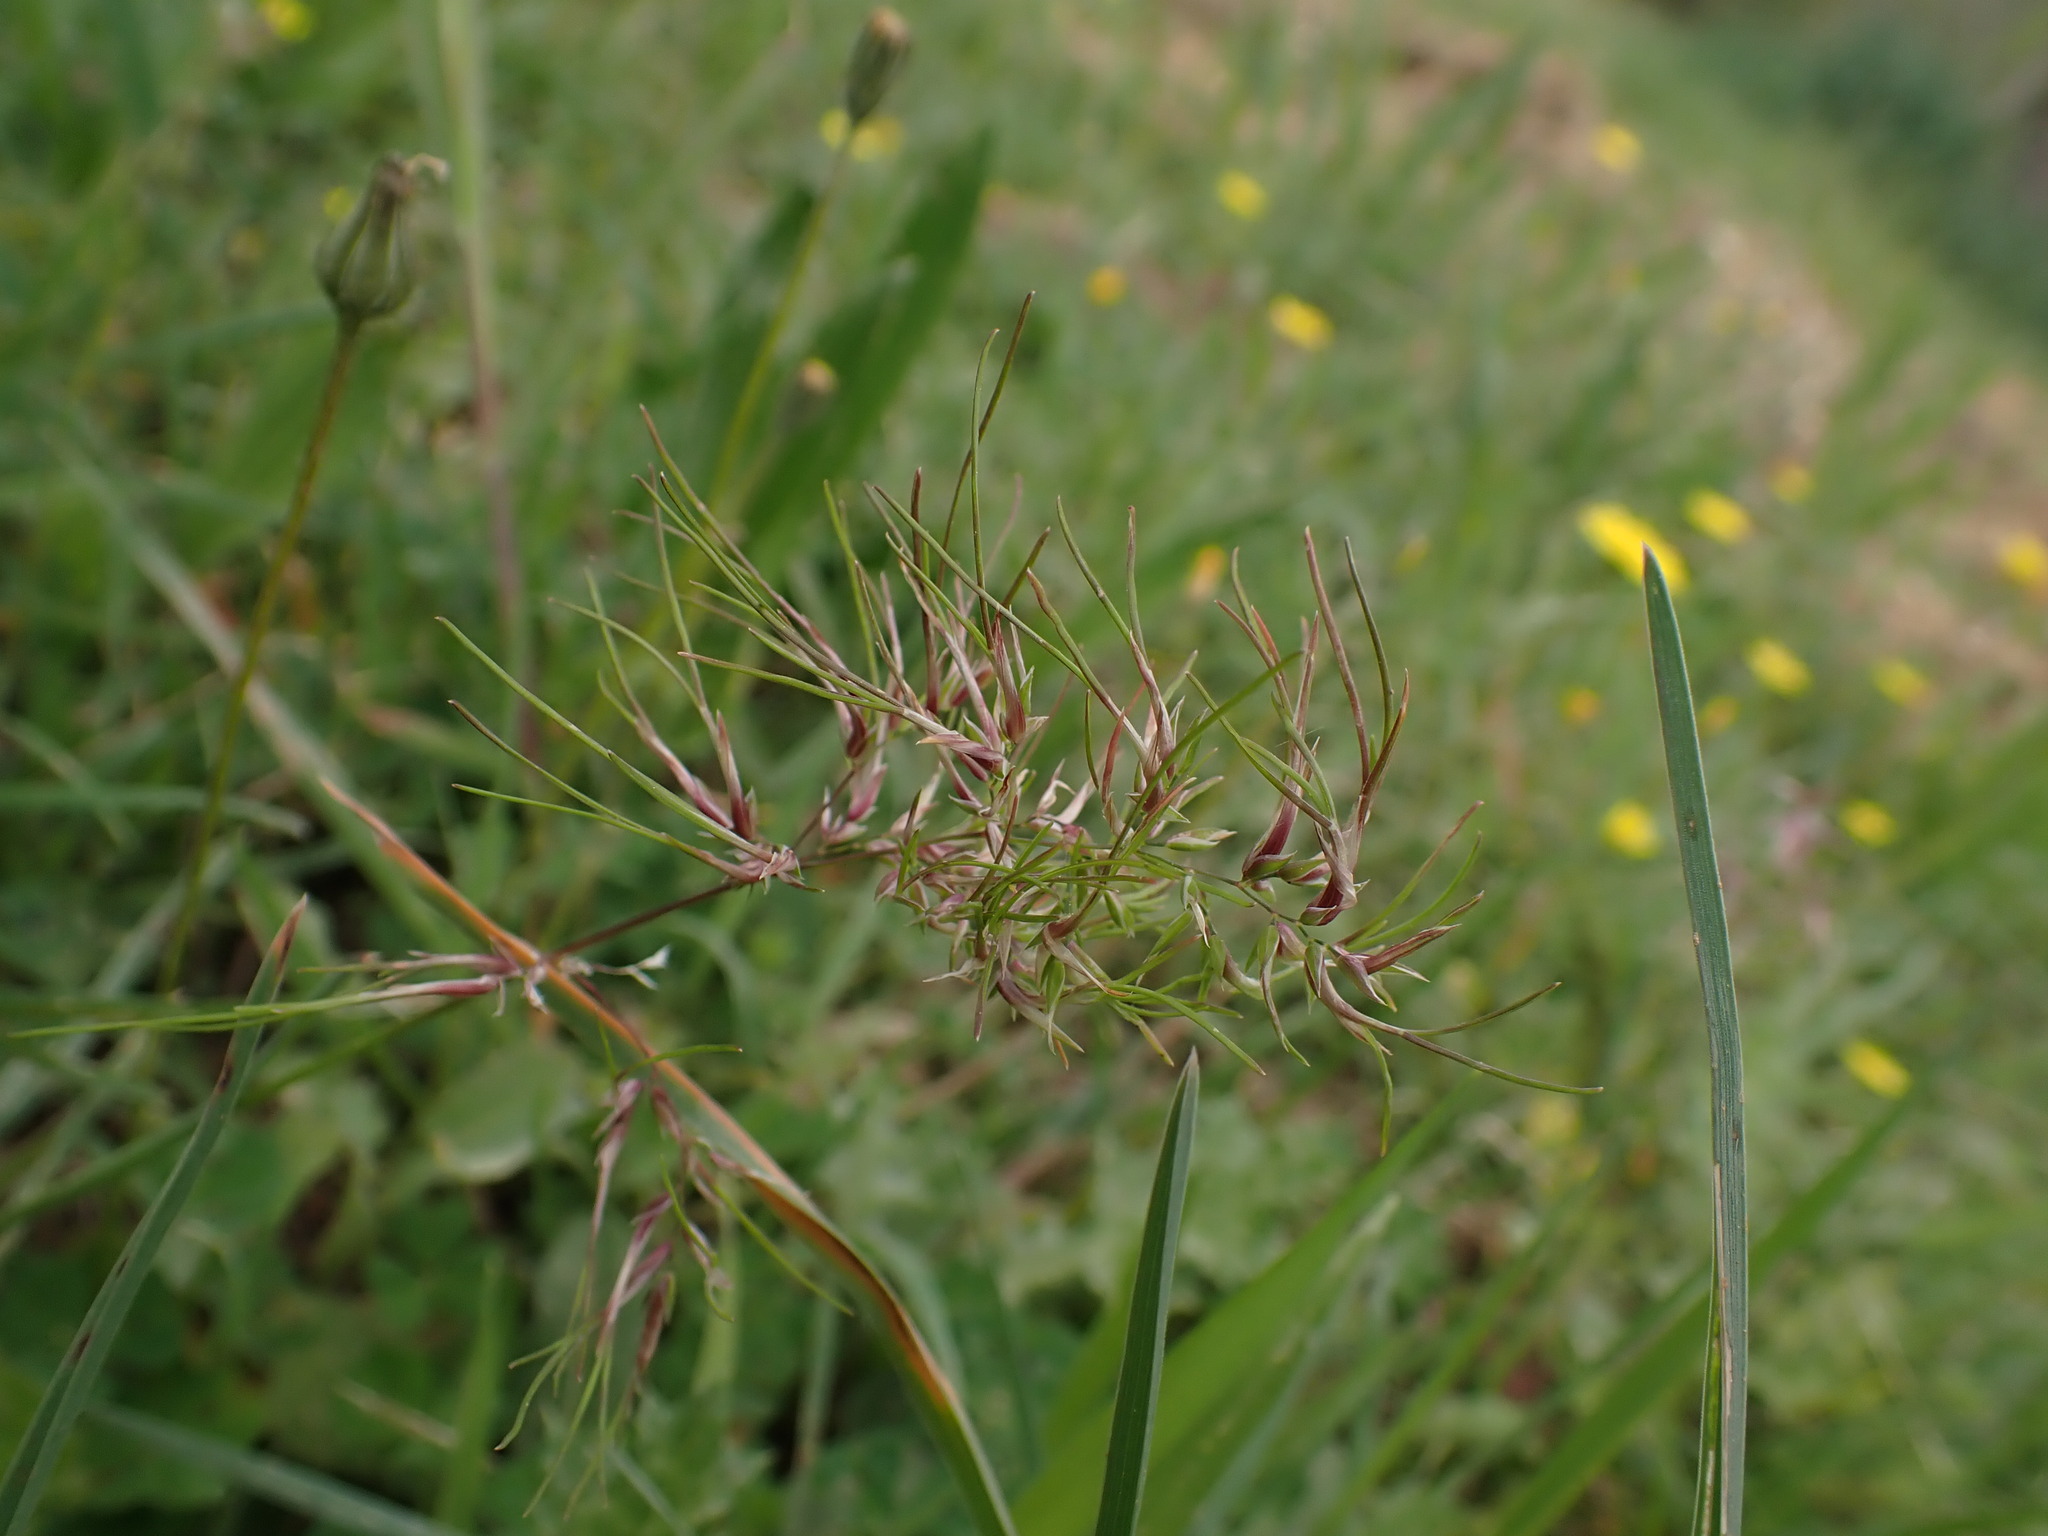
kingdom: Plantae
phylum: Tracheophyta
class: Liliopsida
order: Poales
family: Poaceae
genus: Poa
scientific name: Poa bulbosa
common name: Bulbous bluegrass
